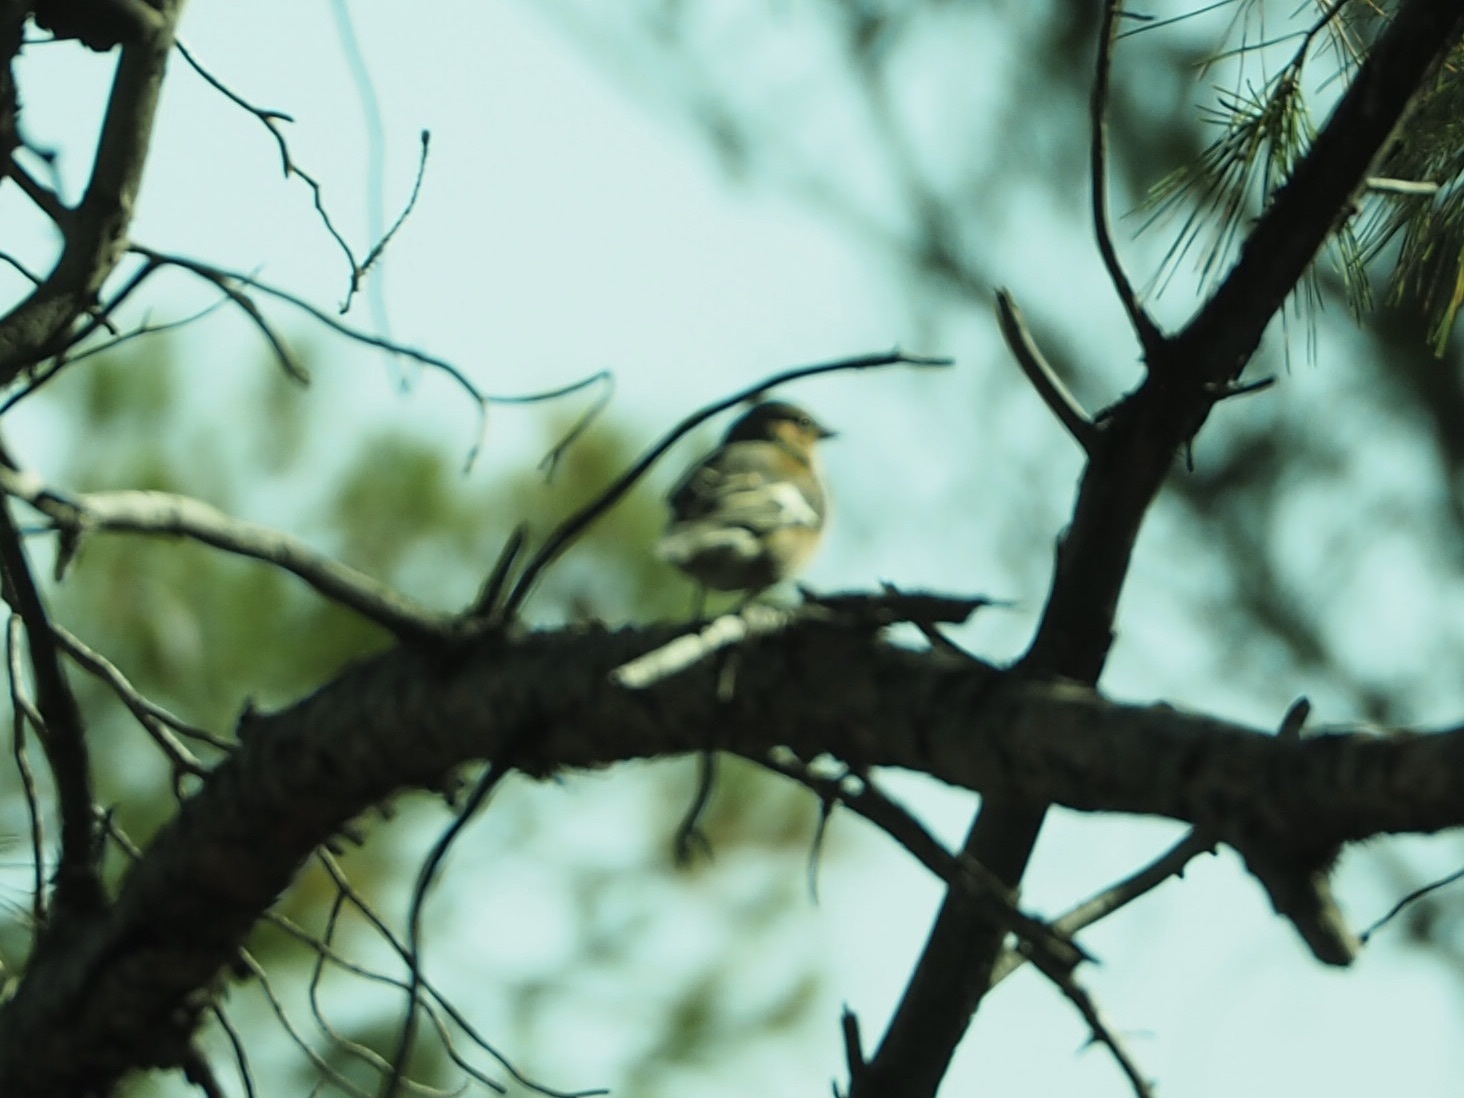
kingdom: Animalia
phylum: Chordata
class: Aves
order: Passeriformes
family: Fringillidae
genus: Fringilla
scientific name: Fringilla coelebs
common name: Common chaffinch
